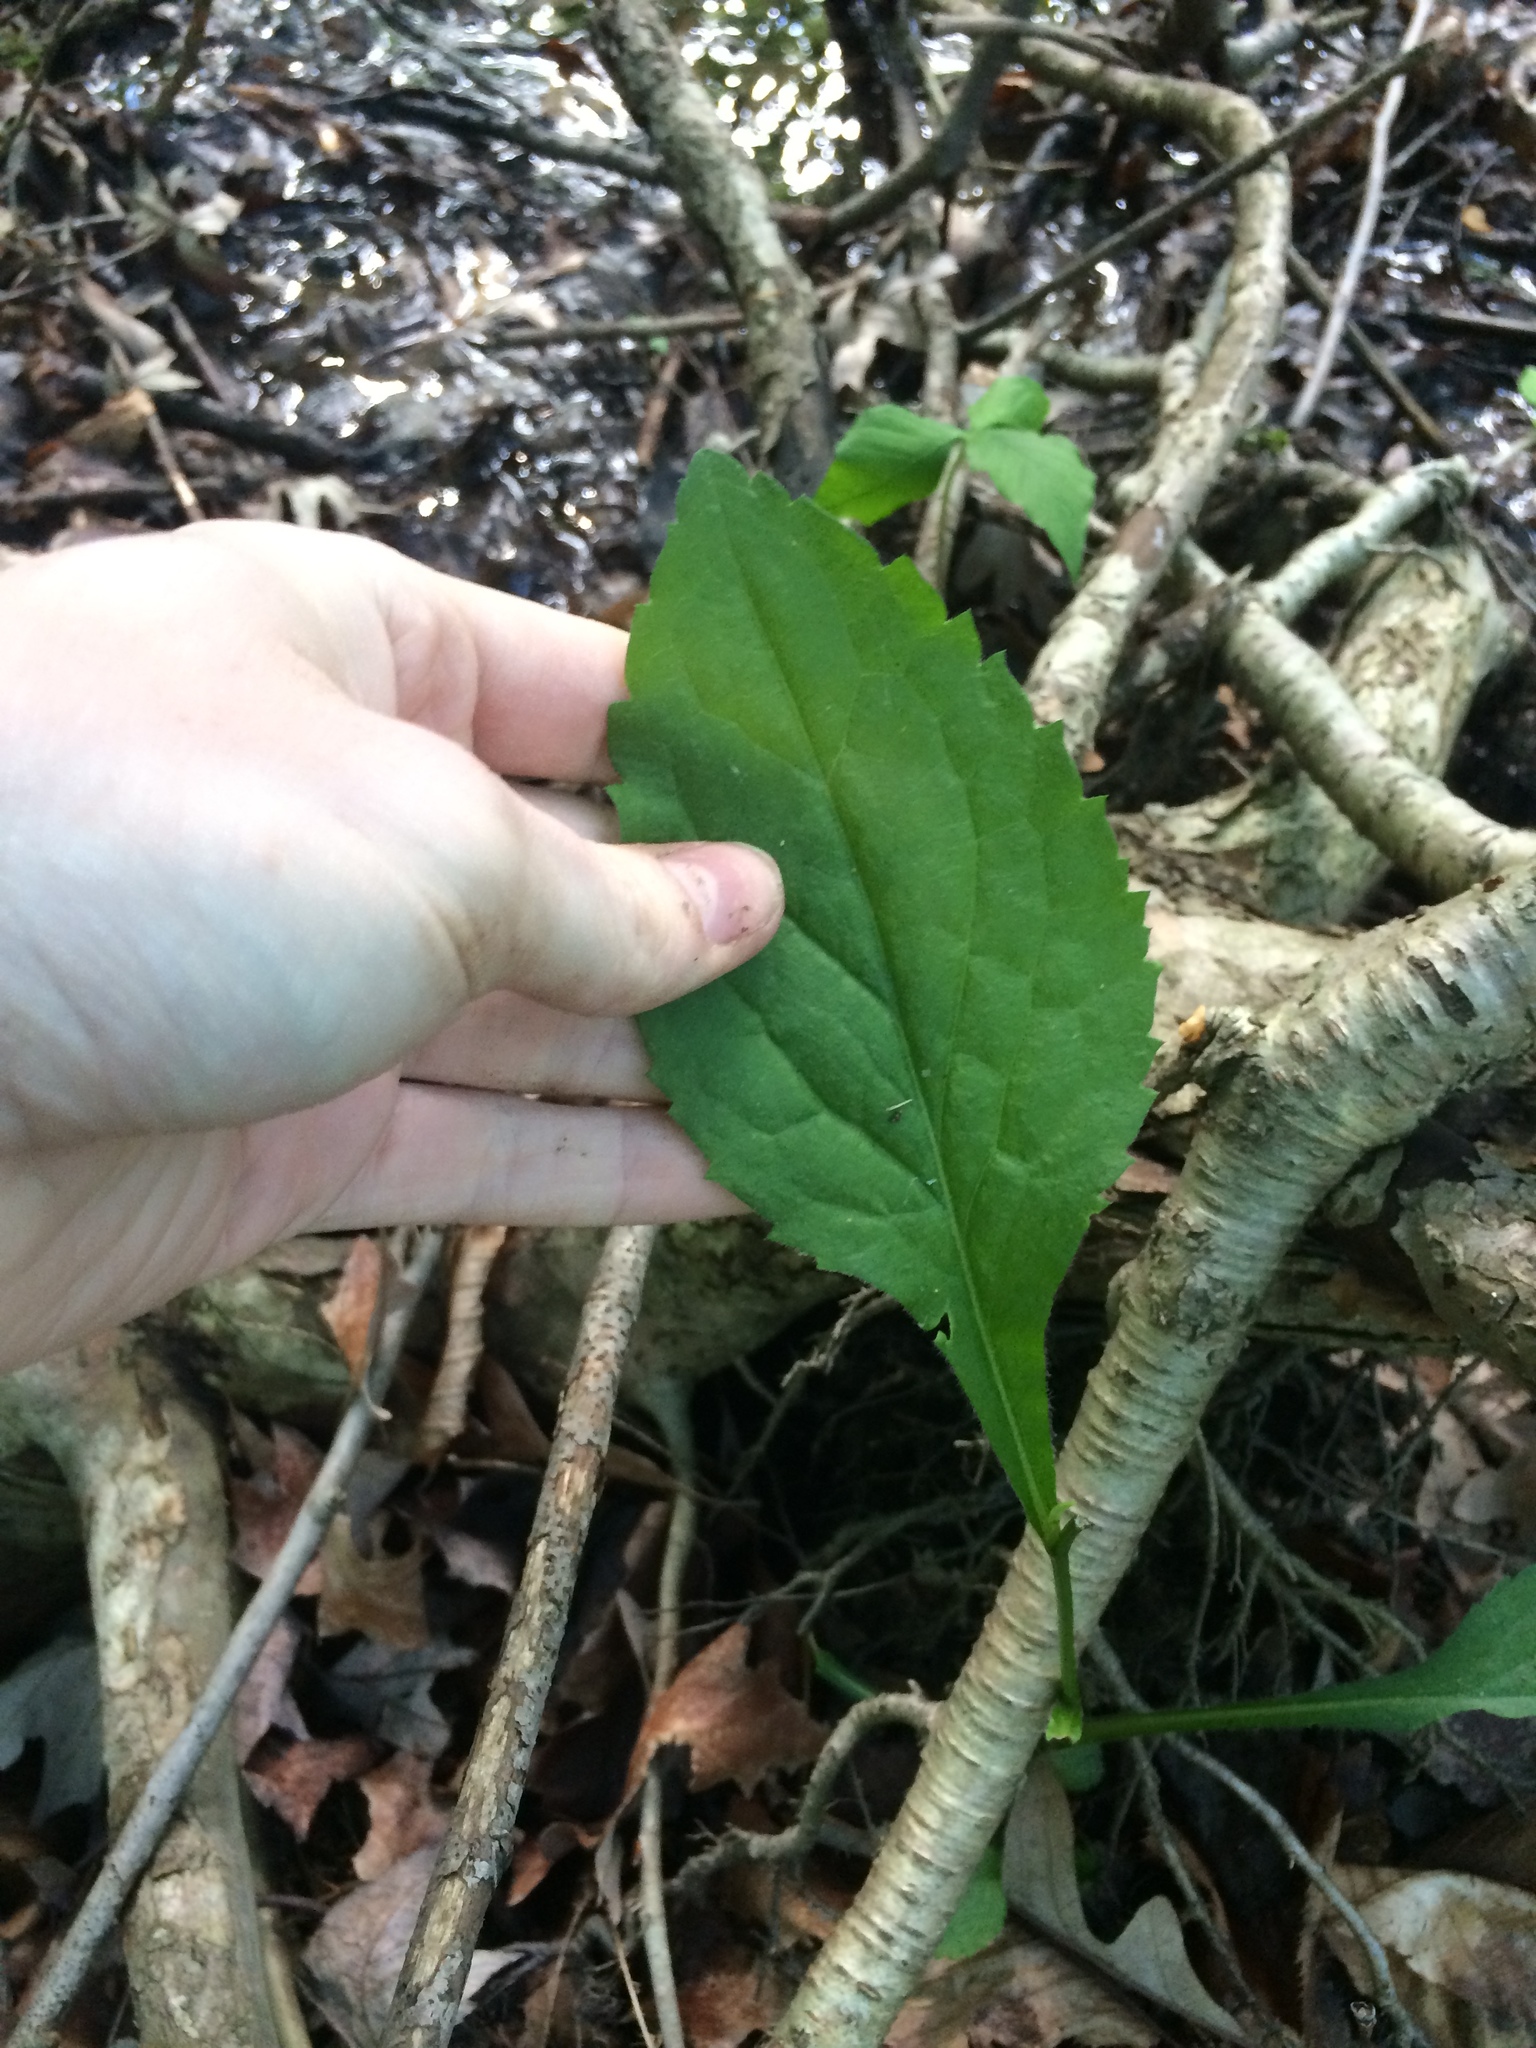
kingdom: Plantae
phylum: Tracheophyta
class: Magnoliopsida
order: Asterales
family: Asteraceae
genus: Solidago
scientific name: Solidago flexicaulis
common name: Zig-zag goldenrod
